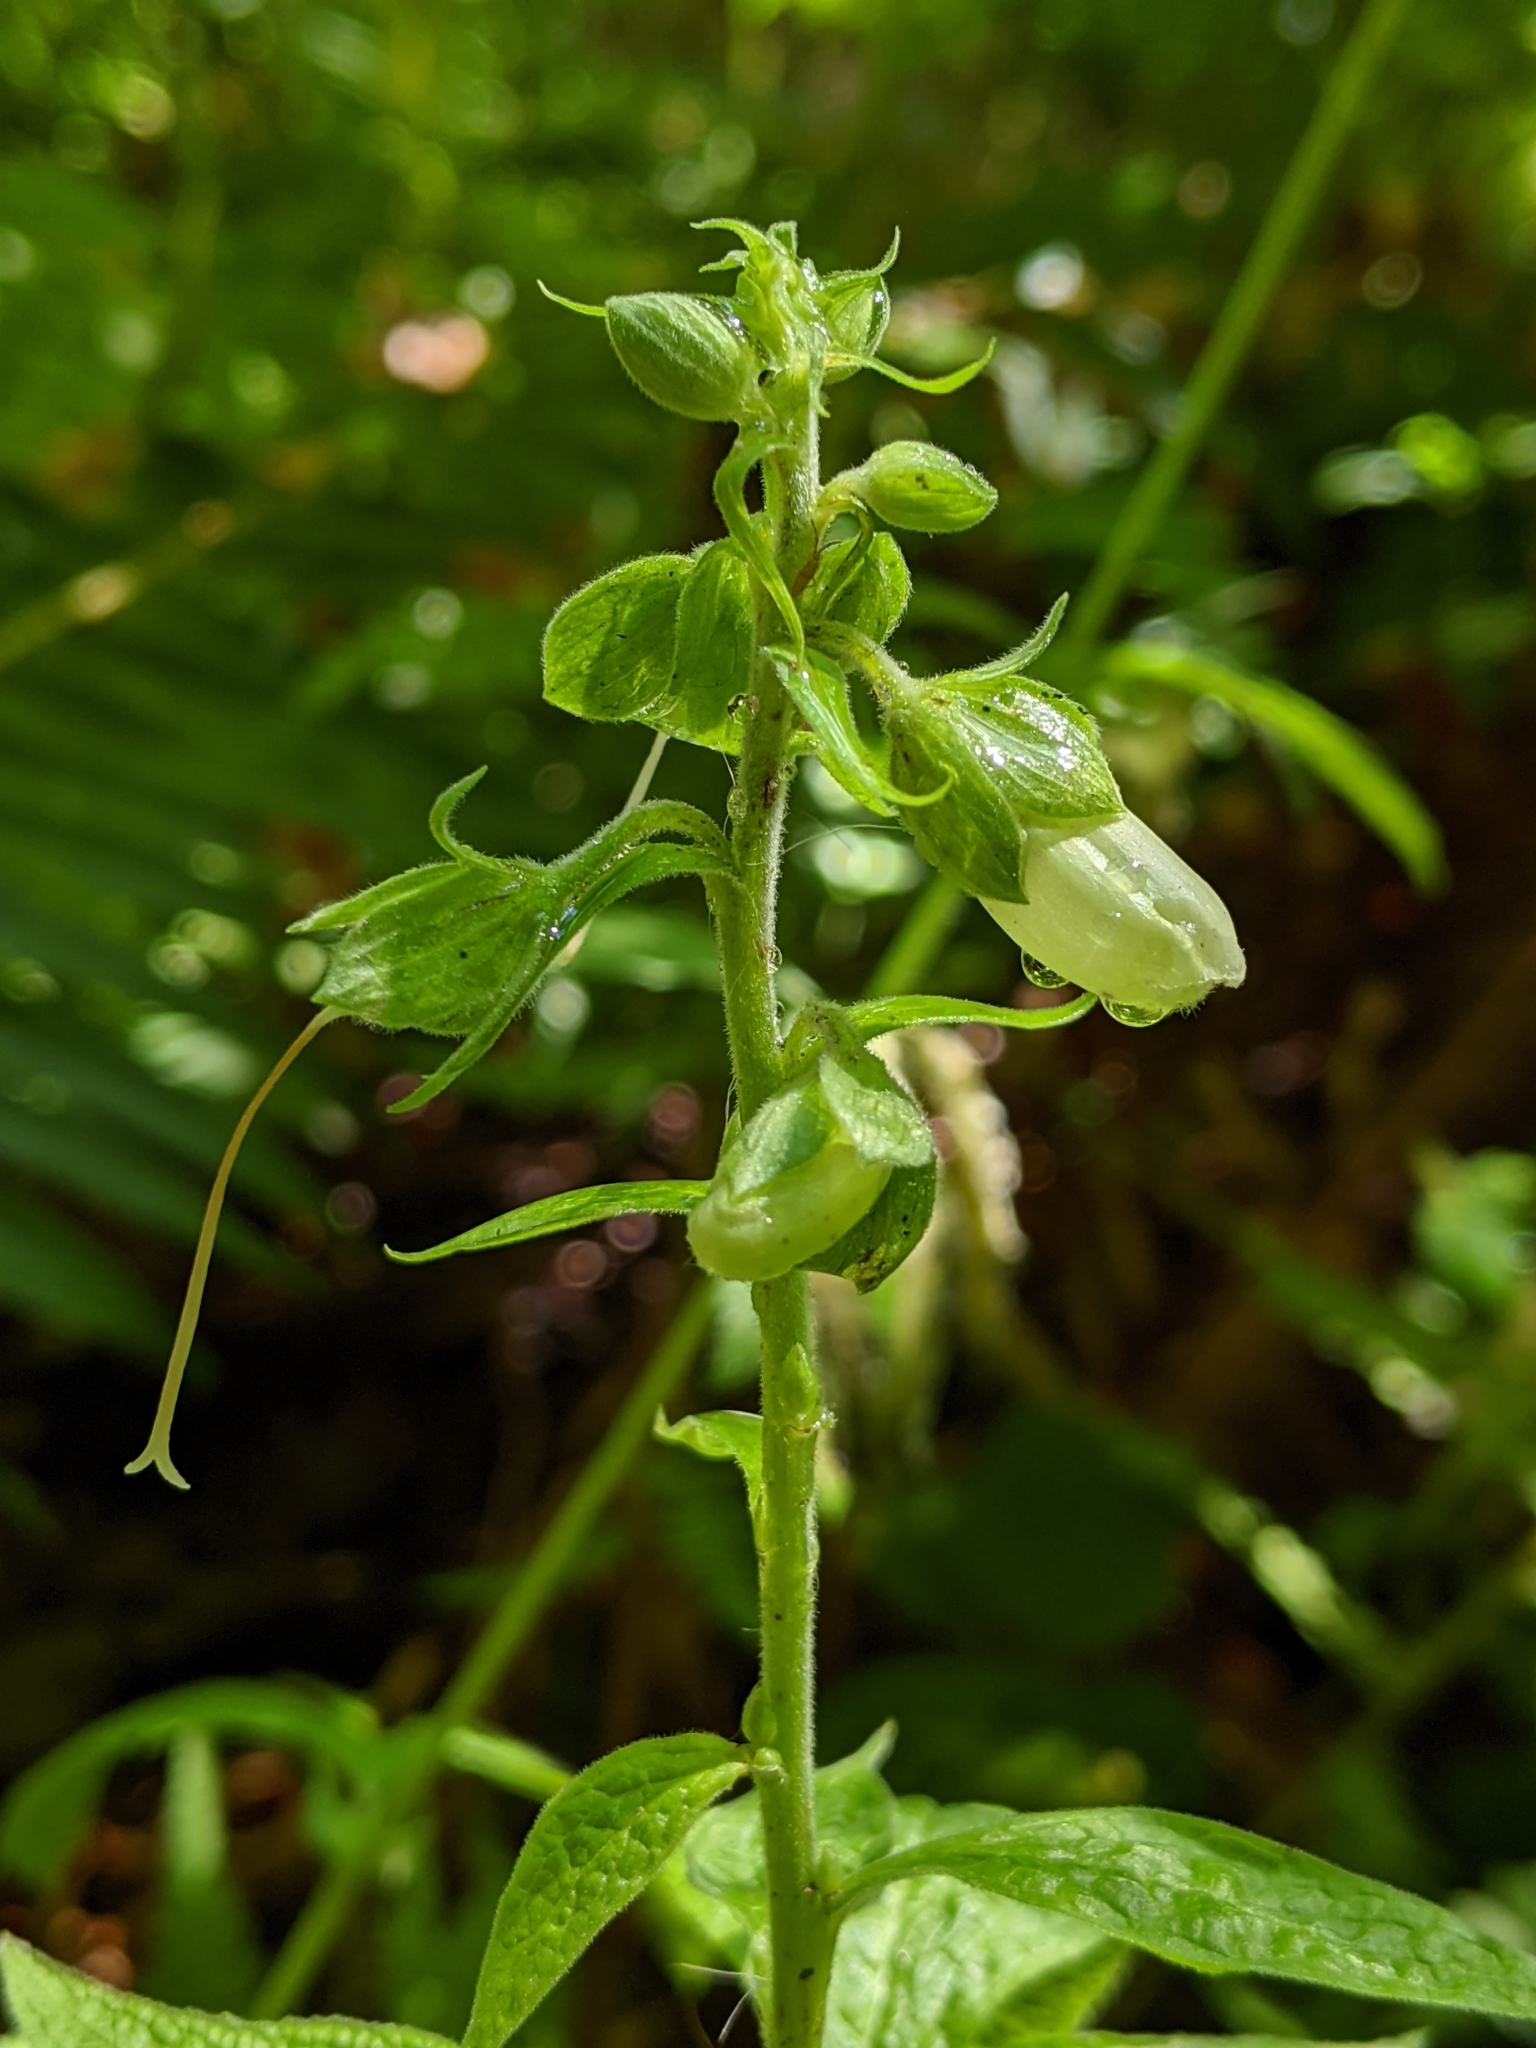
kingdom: Plantae
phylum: Tracheophyta
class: Magnoliopsida
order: Lamiales
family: Plantaginaceae
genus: Digitalis
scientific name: Digitalis purpurea
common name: Foxglove
